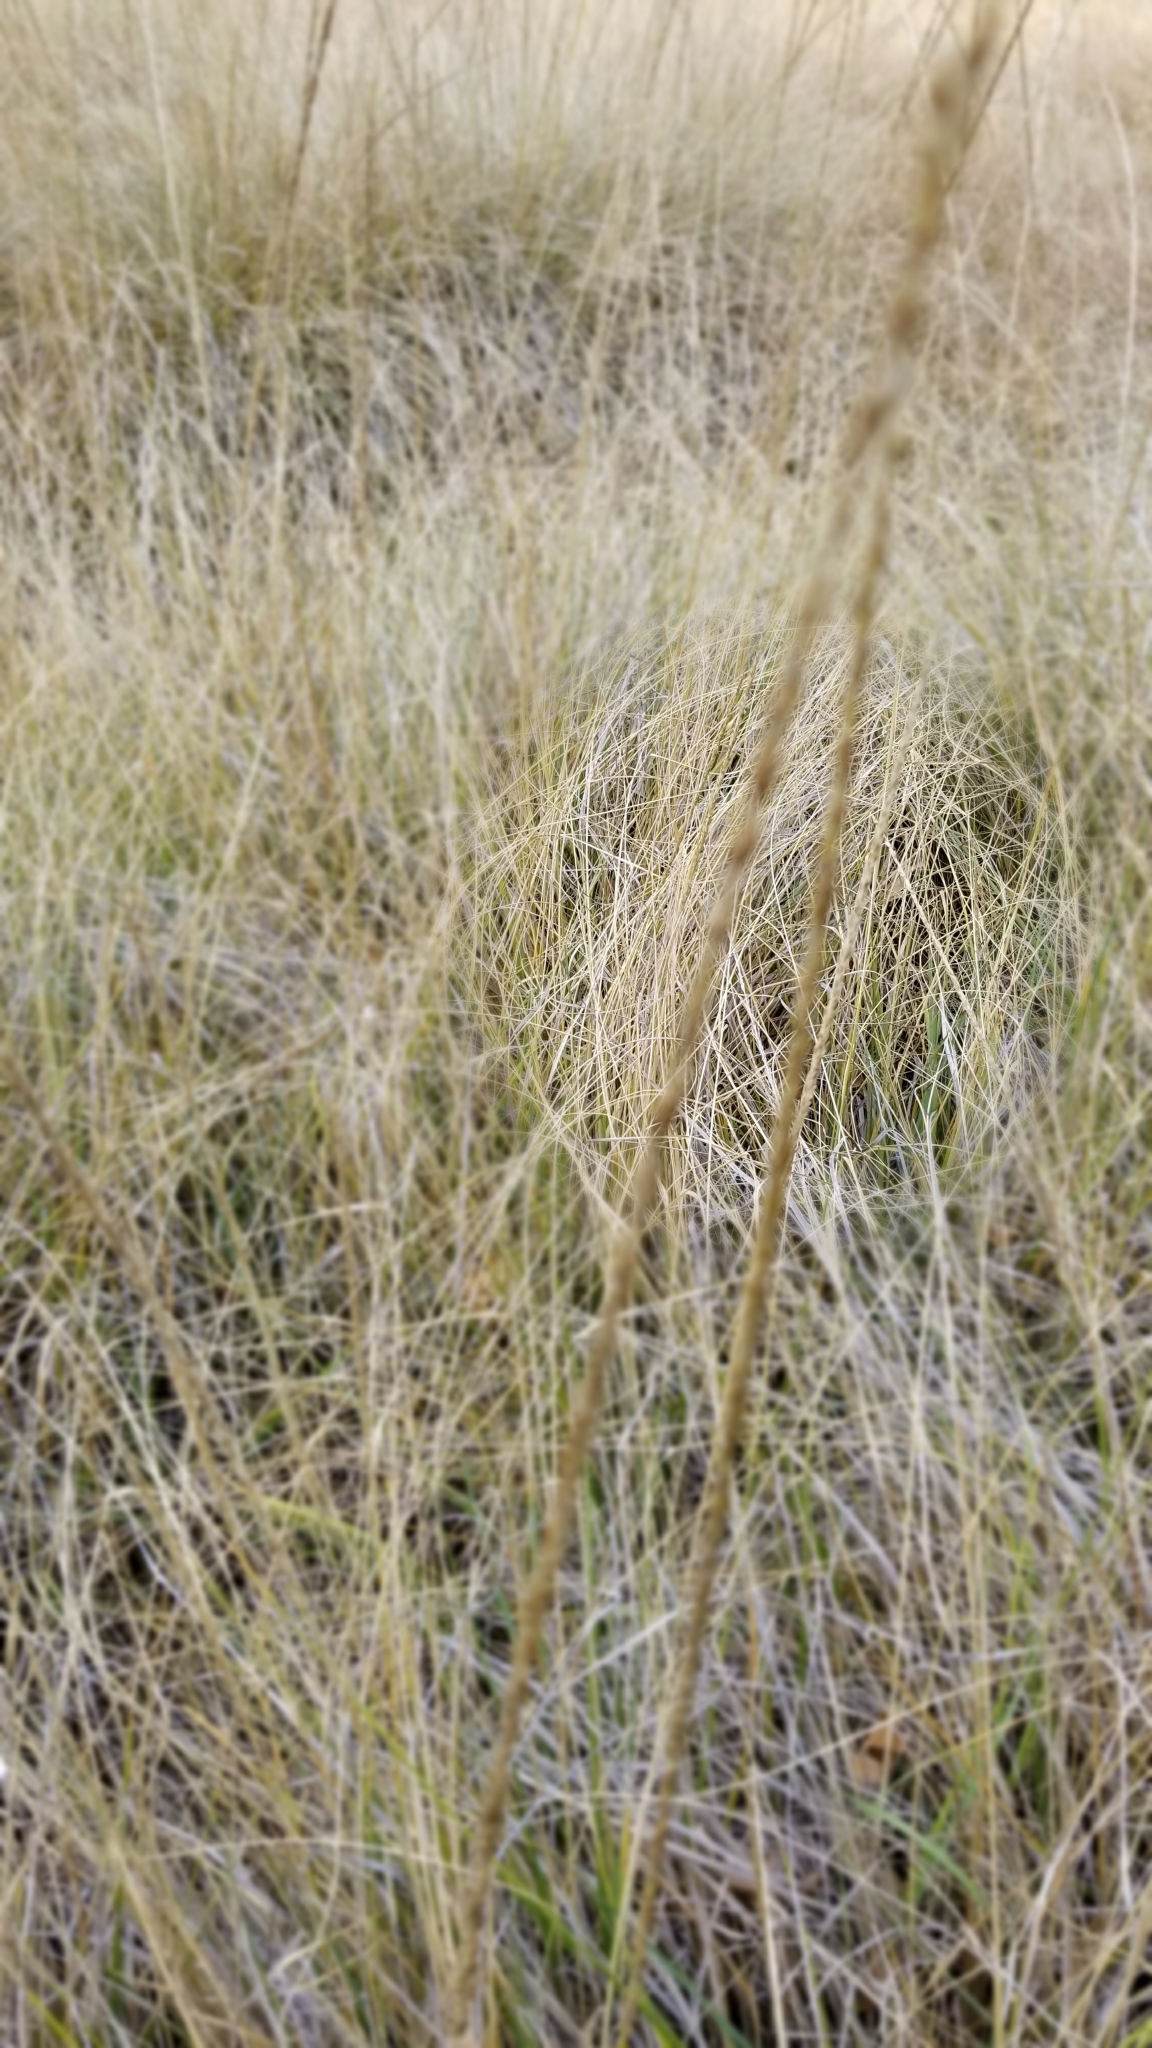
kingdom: Plantae
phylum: Tracheophyta
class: Liliopsida
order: Poales
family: Poaceae
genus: Muhlenbergia
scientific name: Muhlenbergia rigens
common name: Deer grass
